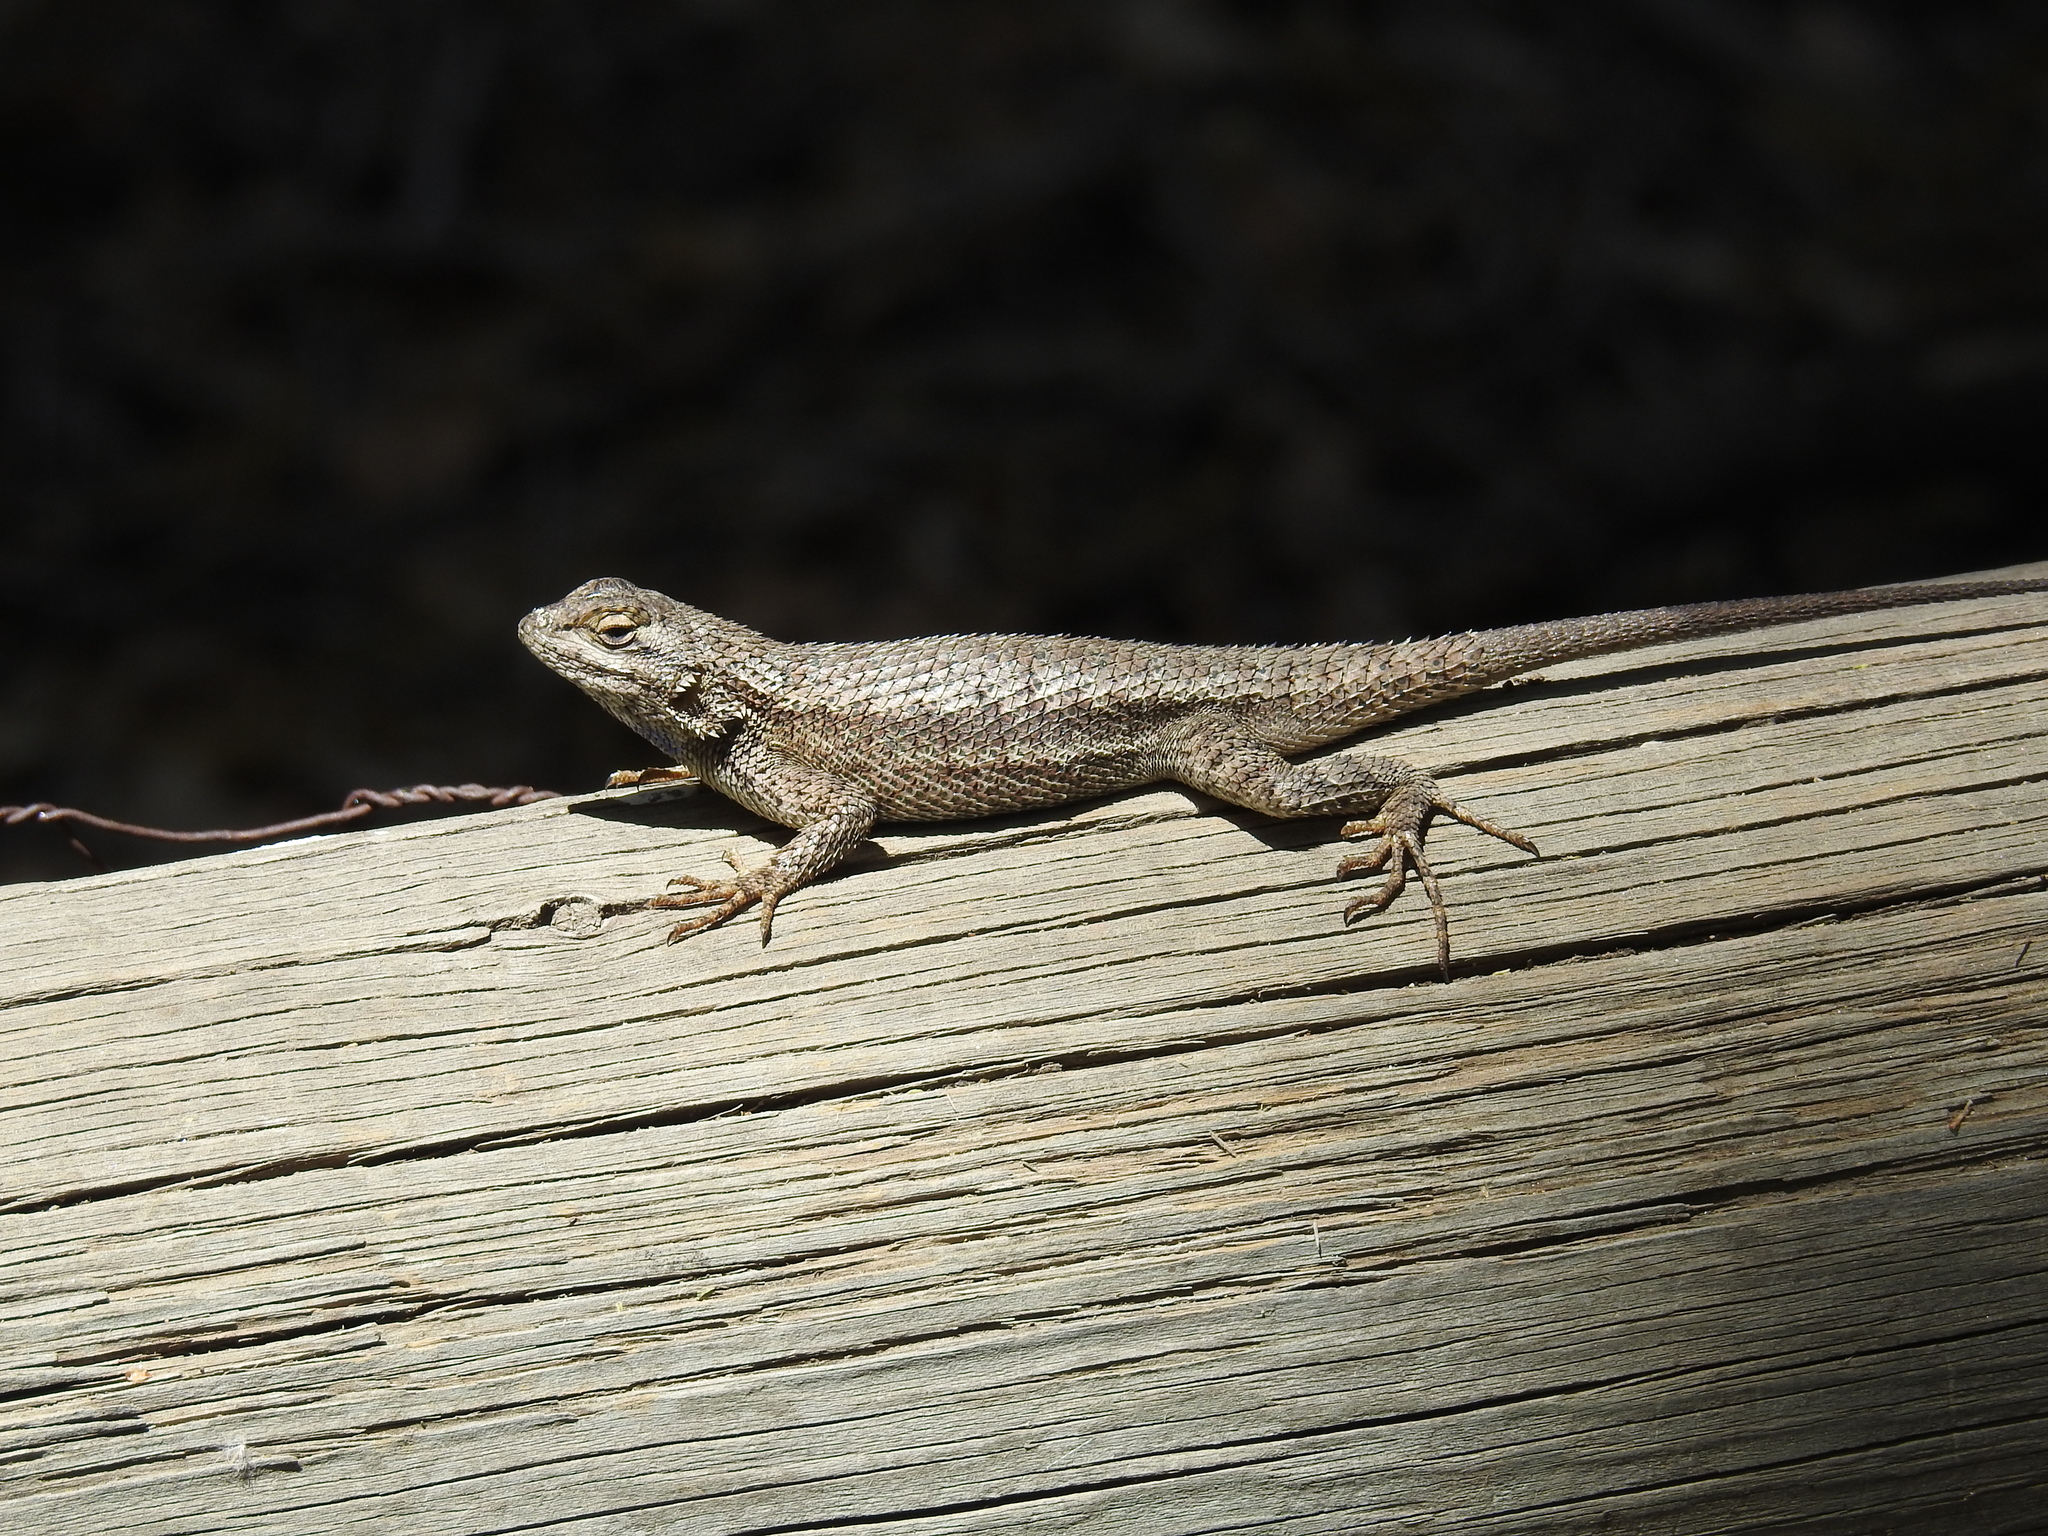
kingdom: Animalia
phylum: Chordata
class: Squamata
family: Phrynosomatidae
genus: Sceloporus
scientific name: Sceloporus occidentalis
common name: Western fence lizard
